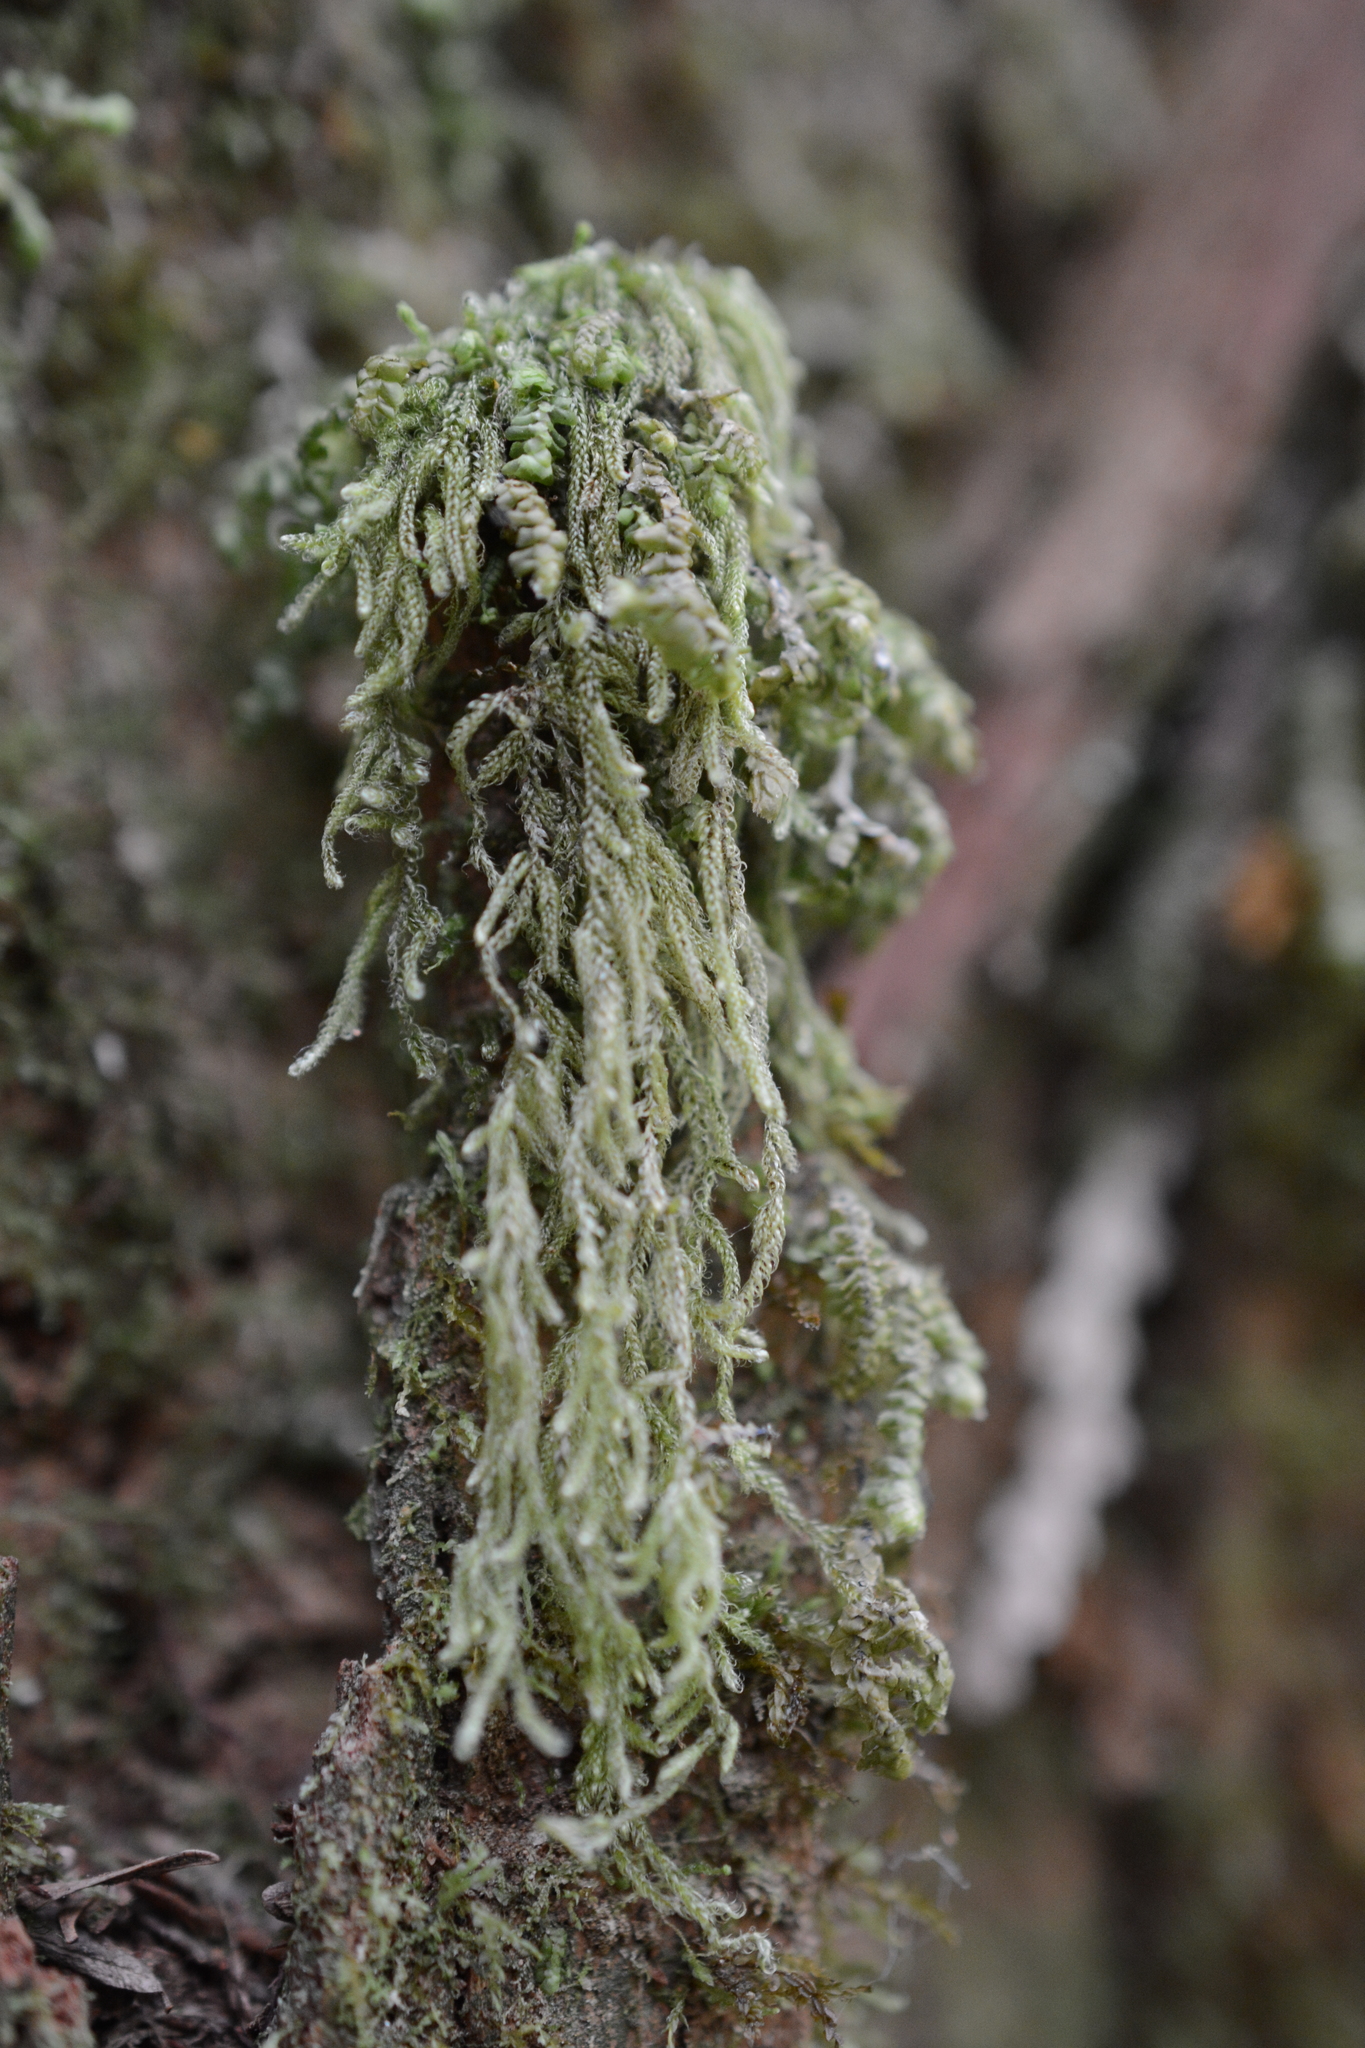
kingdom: Plantae
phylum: Bryophyta
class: Bryopsida
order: Hypnales
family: Pylaisiadelphaceae
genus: Trochophyllohypnum
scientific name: Trochophyllohypnum circinale
